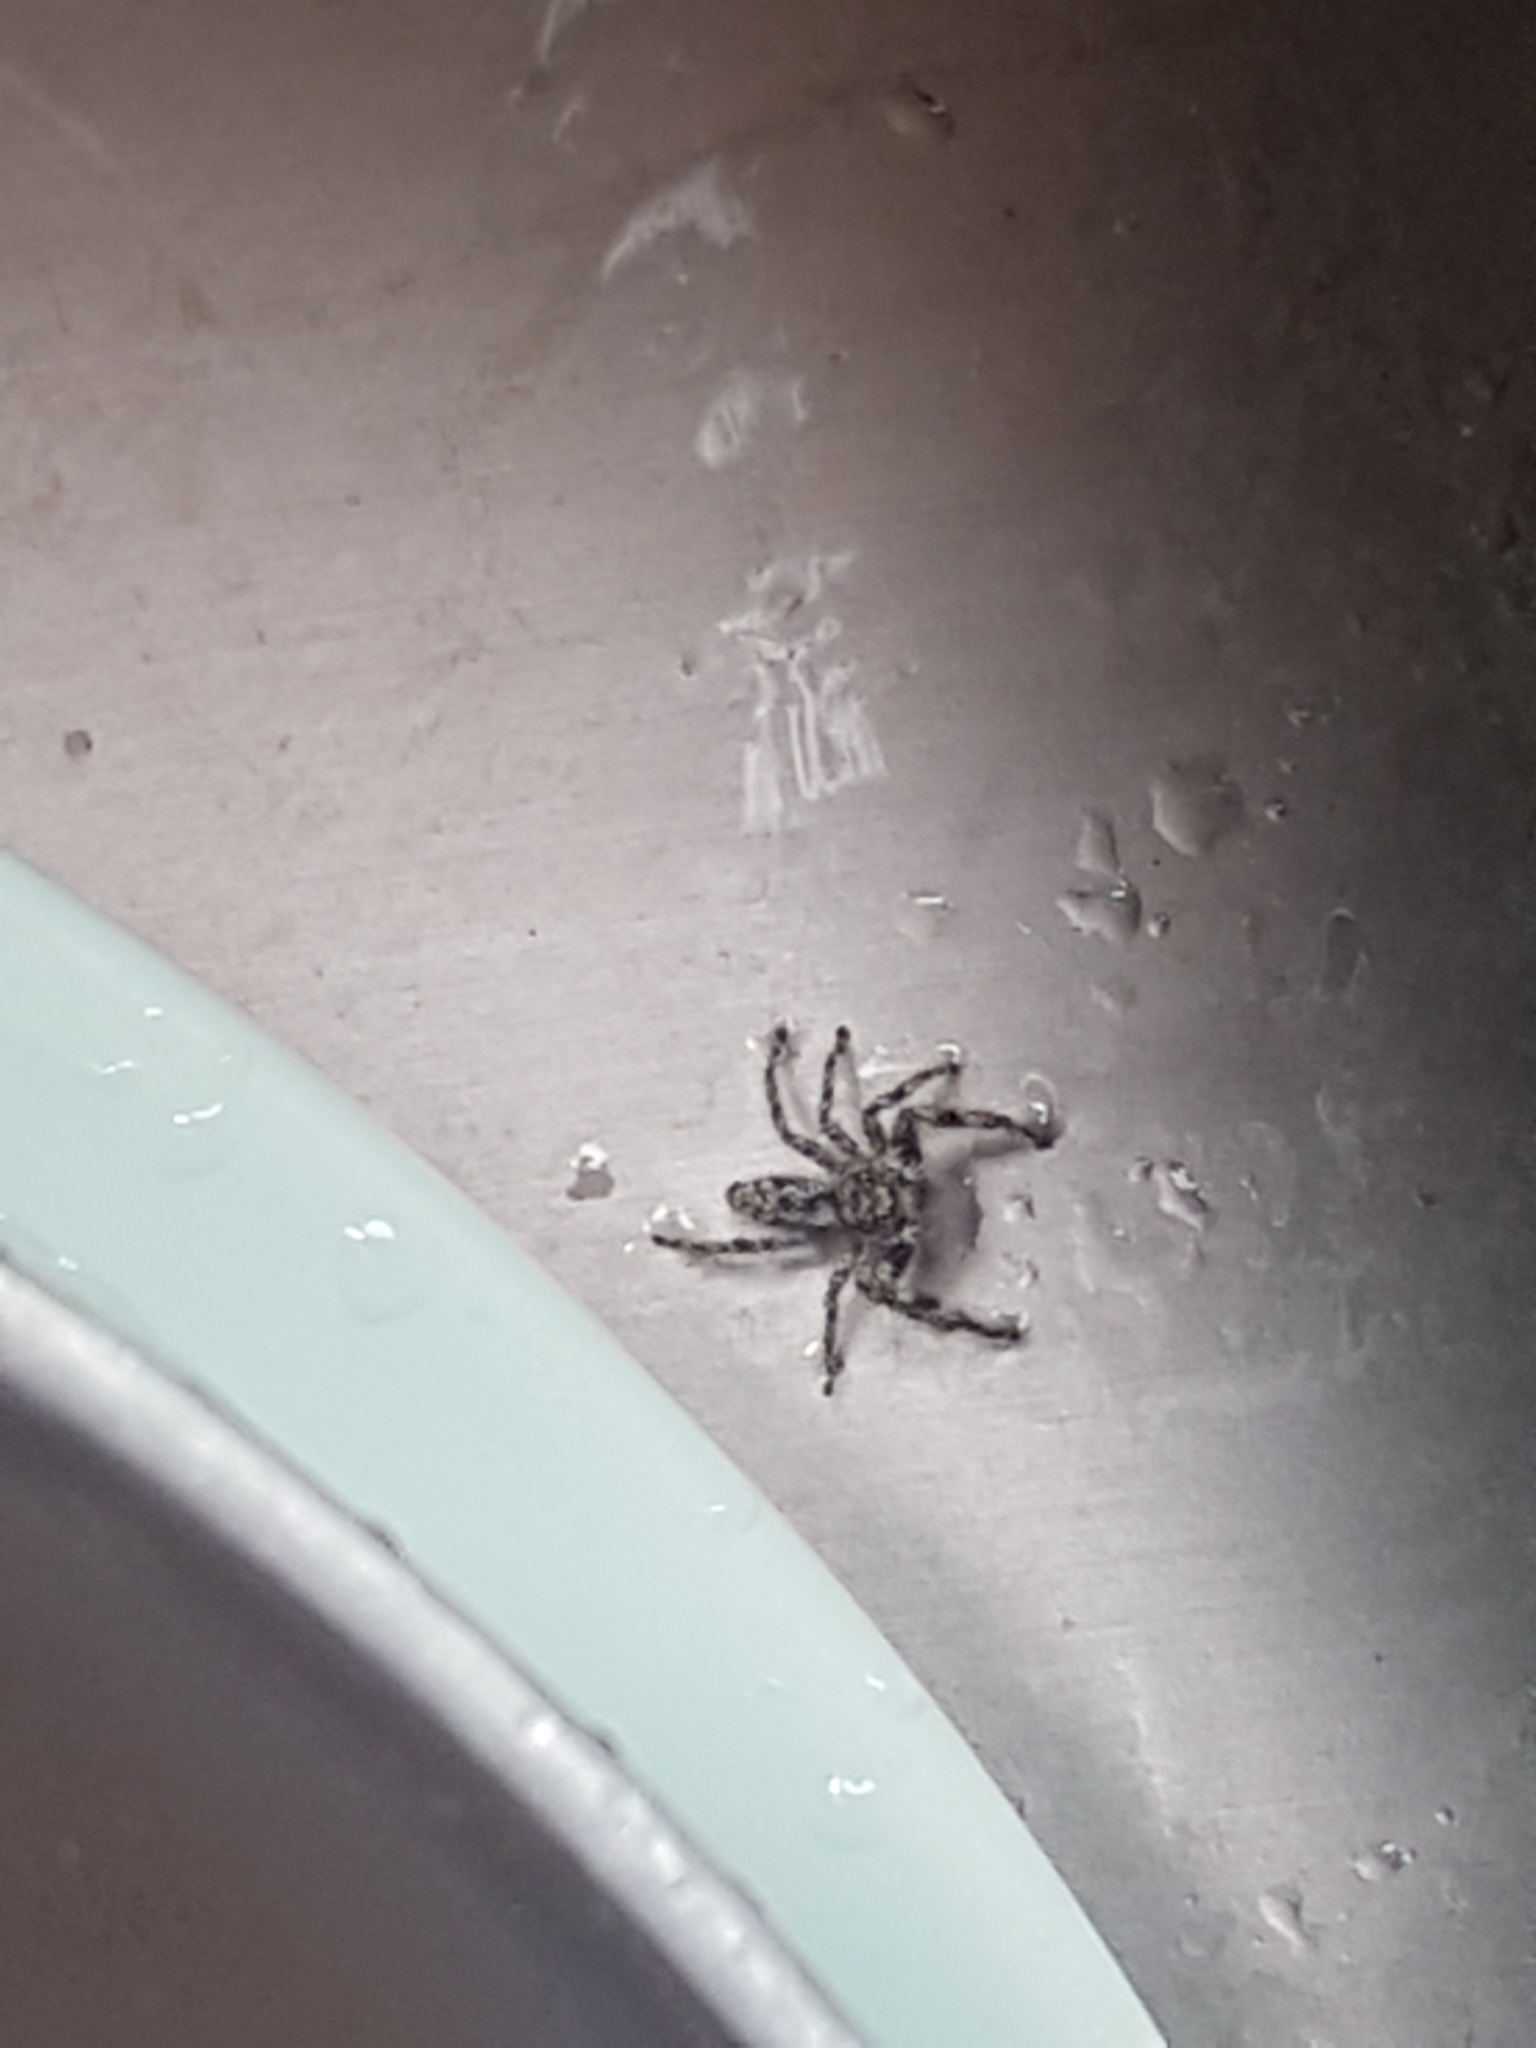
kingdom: Animalia
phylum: Arthropoda
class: Arachnida
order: Araneae
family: Salticidae
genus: Platycryptus
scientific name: Platycryptus undatus
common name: Tan jumping spider
